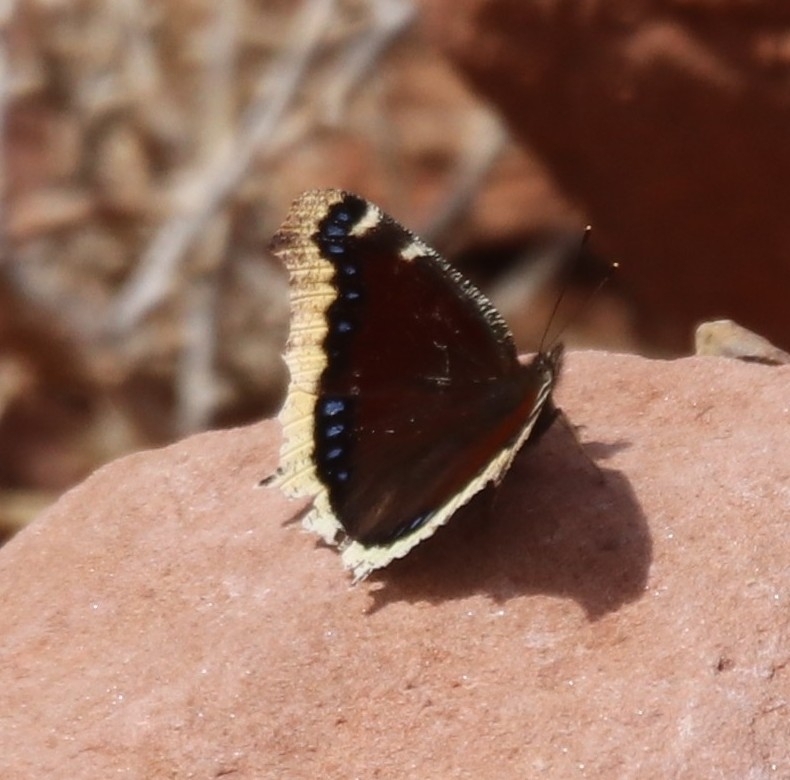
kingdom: Animalia
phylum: Arthropoda
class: Insecta
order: Lepidoptera
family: Nymphalidae
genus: Nymphalis
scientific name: Nymphalis antiopa
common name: Camberwell beauty
